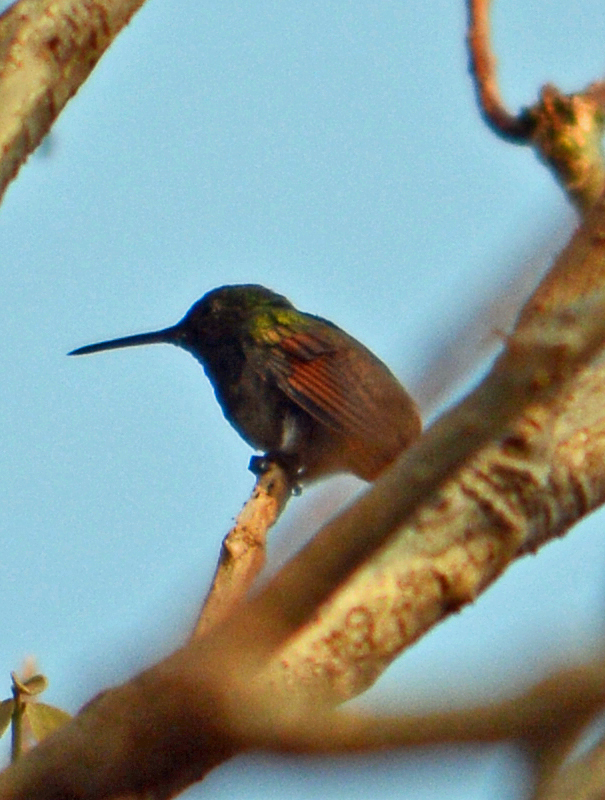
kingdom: Animalia
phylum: Chordata
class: Aves
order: Apodiformes
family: Trochilidae
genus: Saucerottia
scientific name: Saucerottia beryllina
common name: Berylline hummingbird
